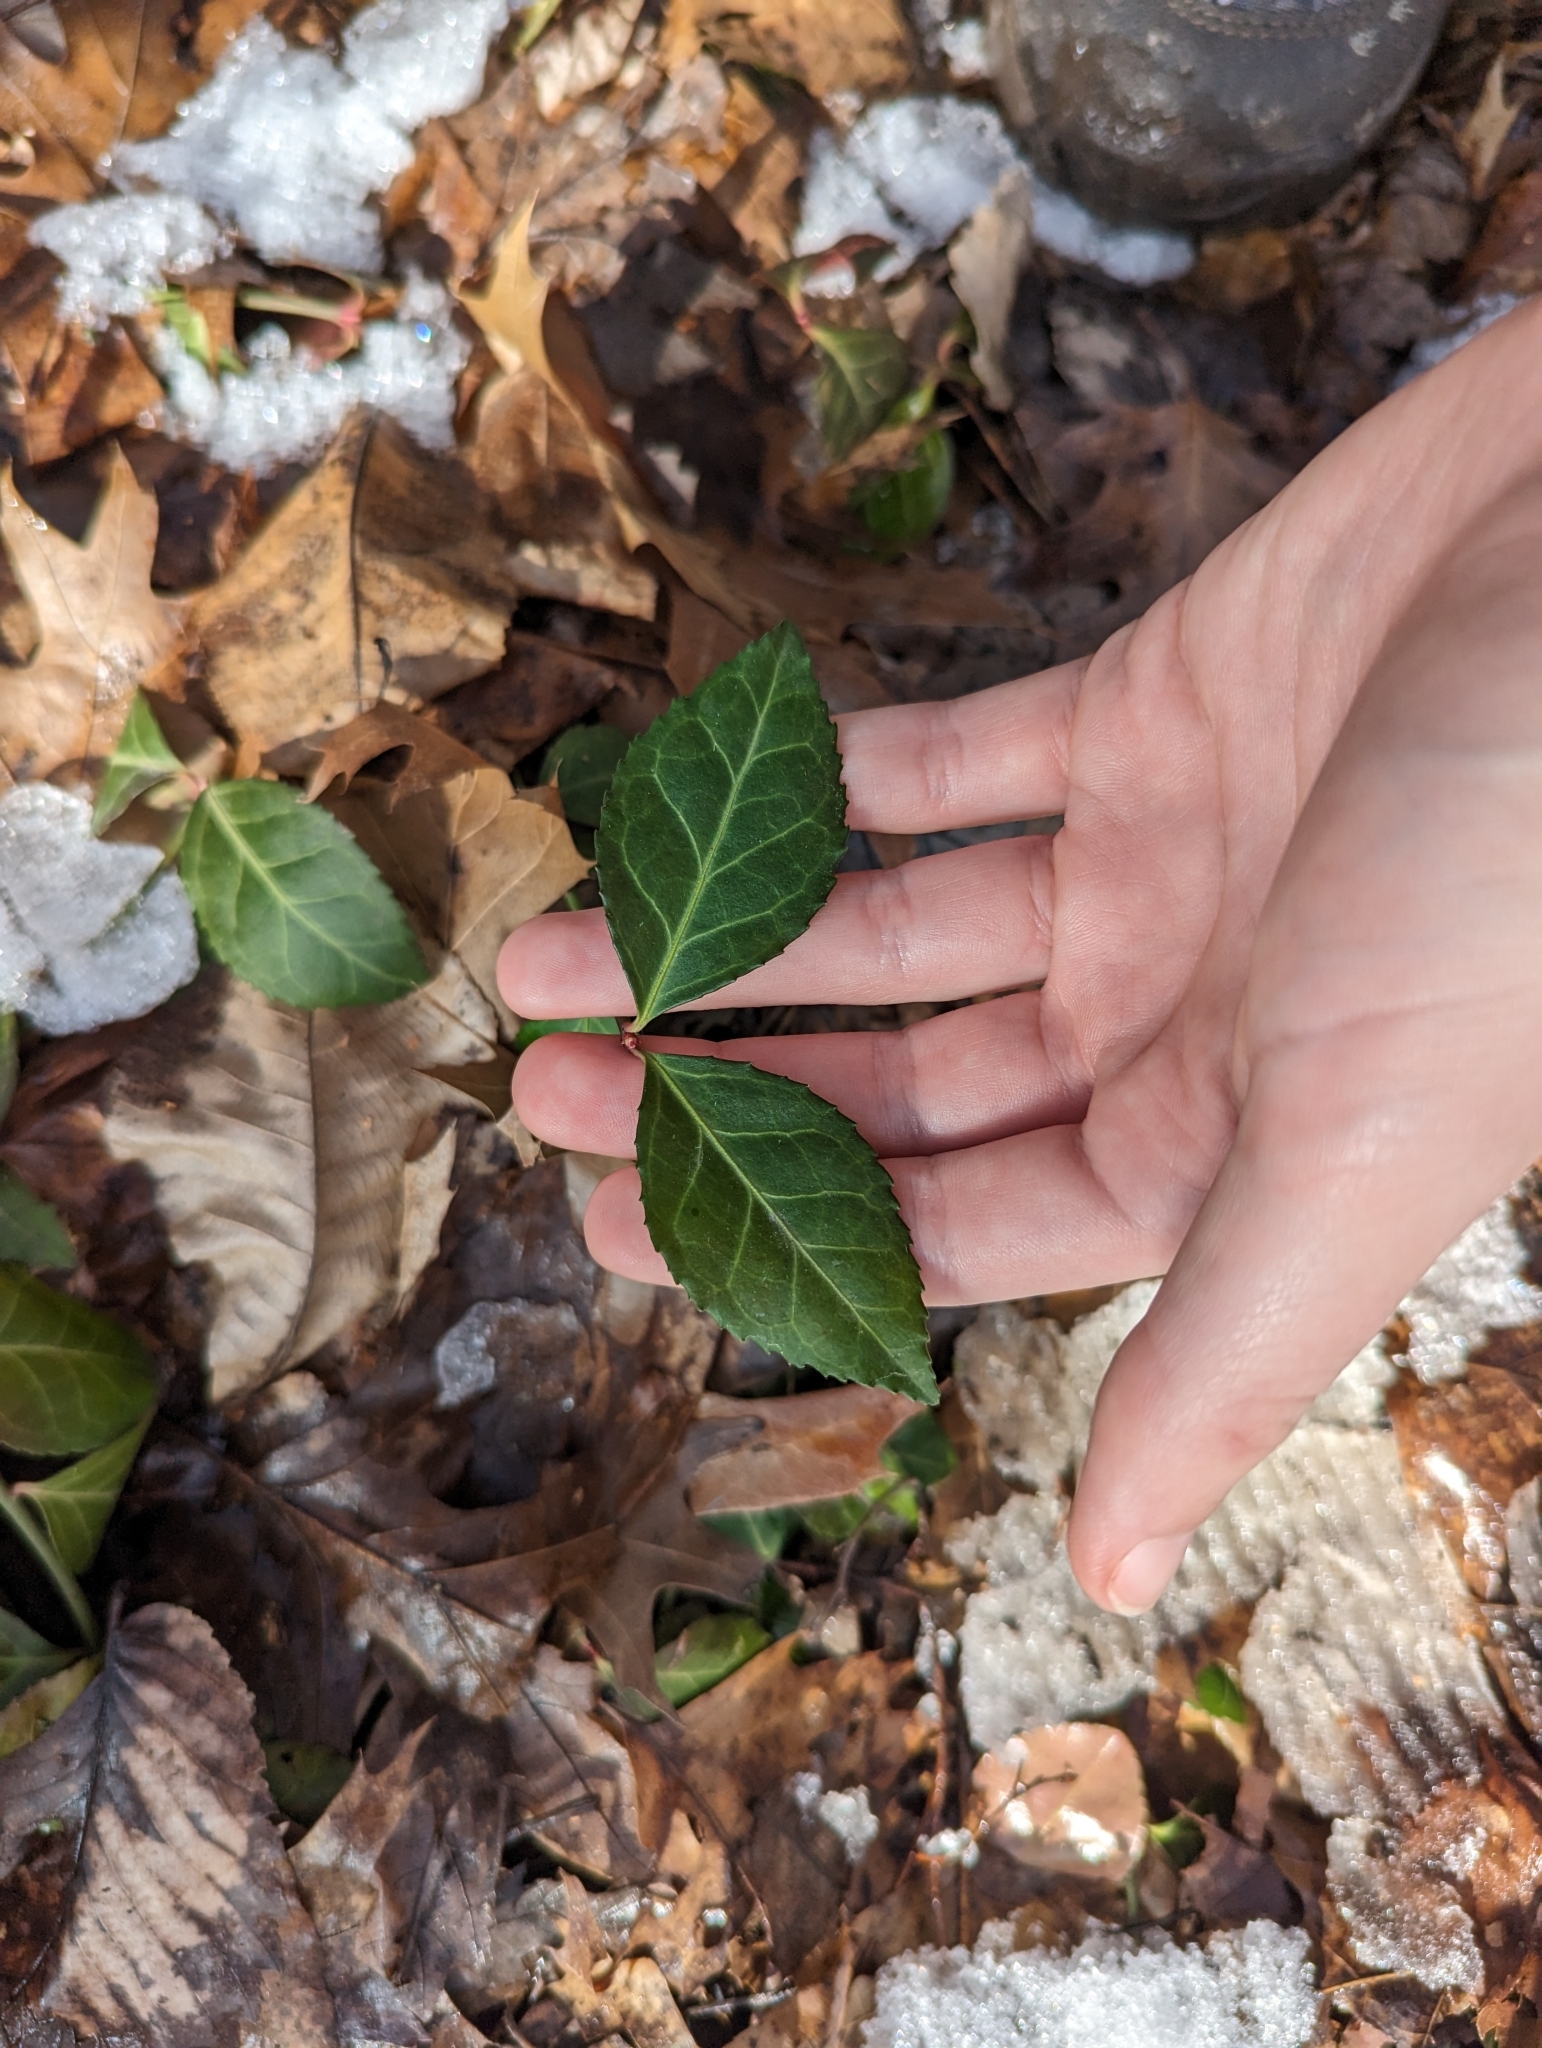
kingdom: Plantae
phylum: Tracheophyta
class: Magnoliopsida
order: Celastrales
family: Celastraceae
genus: Euonymus
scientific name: Euonymus fortunei
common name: Climbing euonymus
